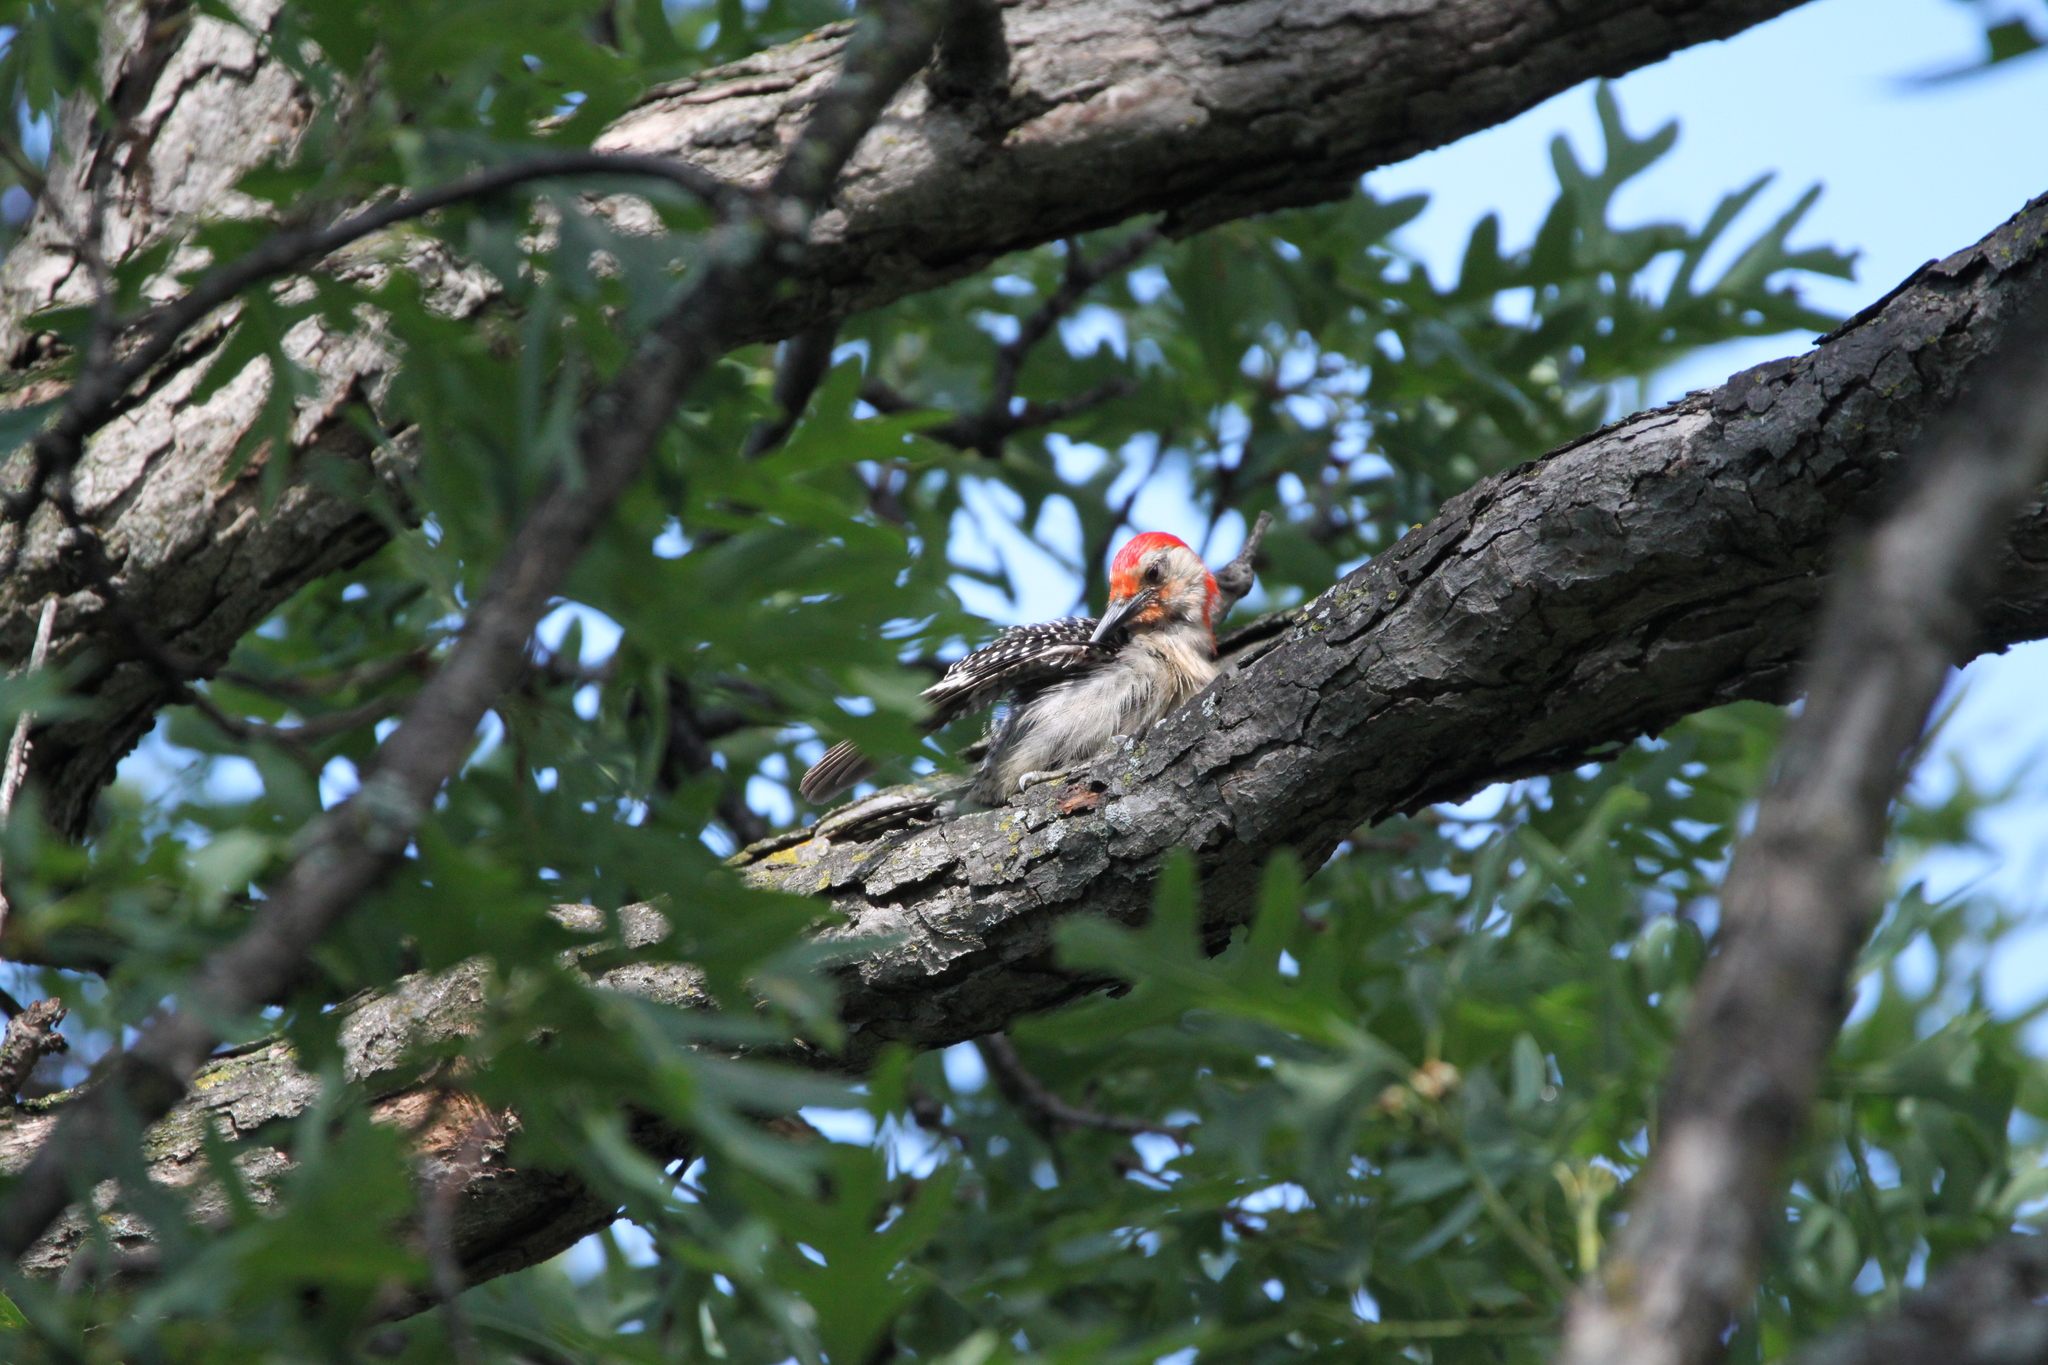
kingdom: Animalia
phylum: Chordata
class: Aves
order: Piciformes
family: Picidae
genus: Melanerpes
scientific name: Melanerpes carolinus
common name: Red-bellied woodpecker
